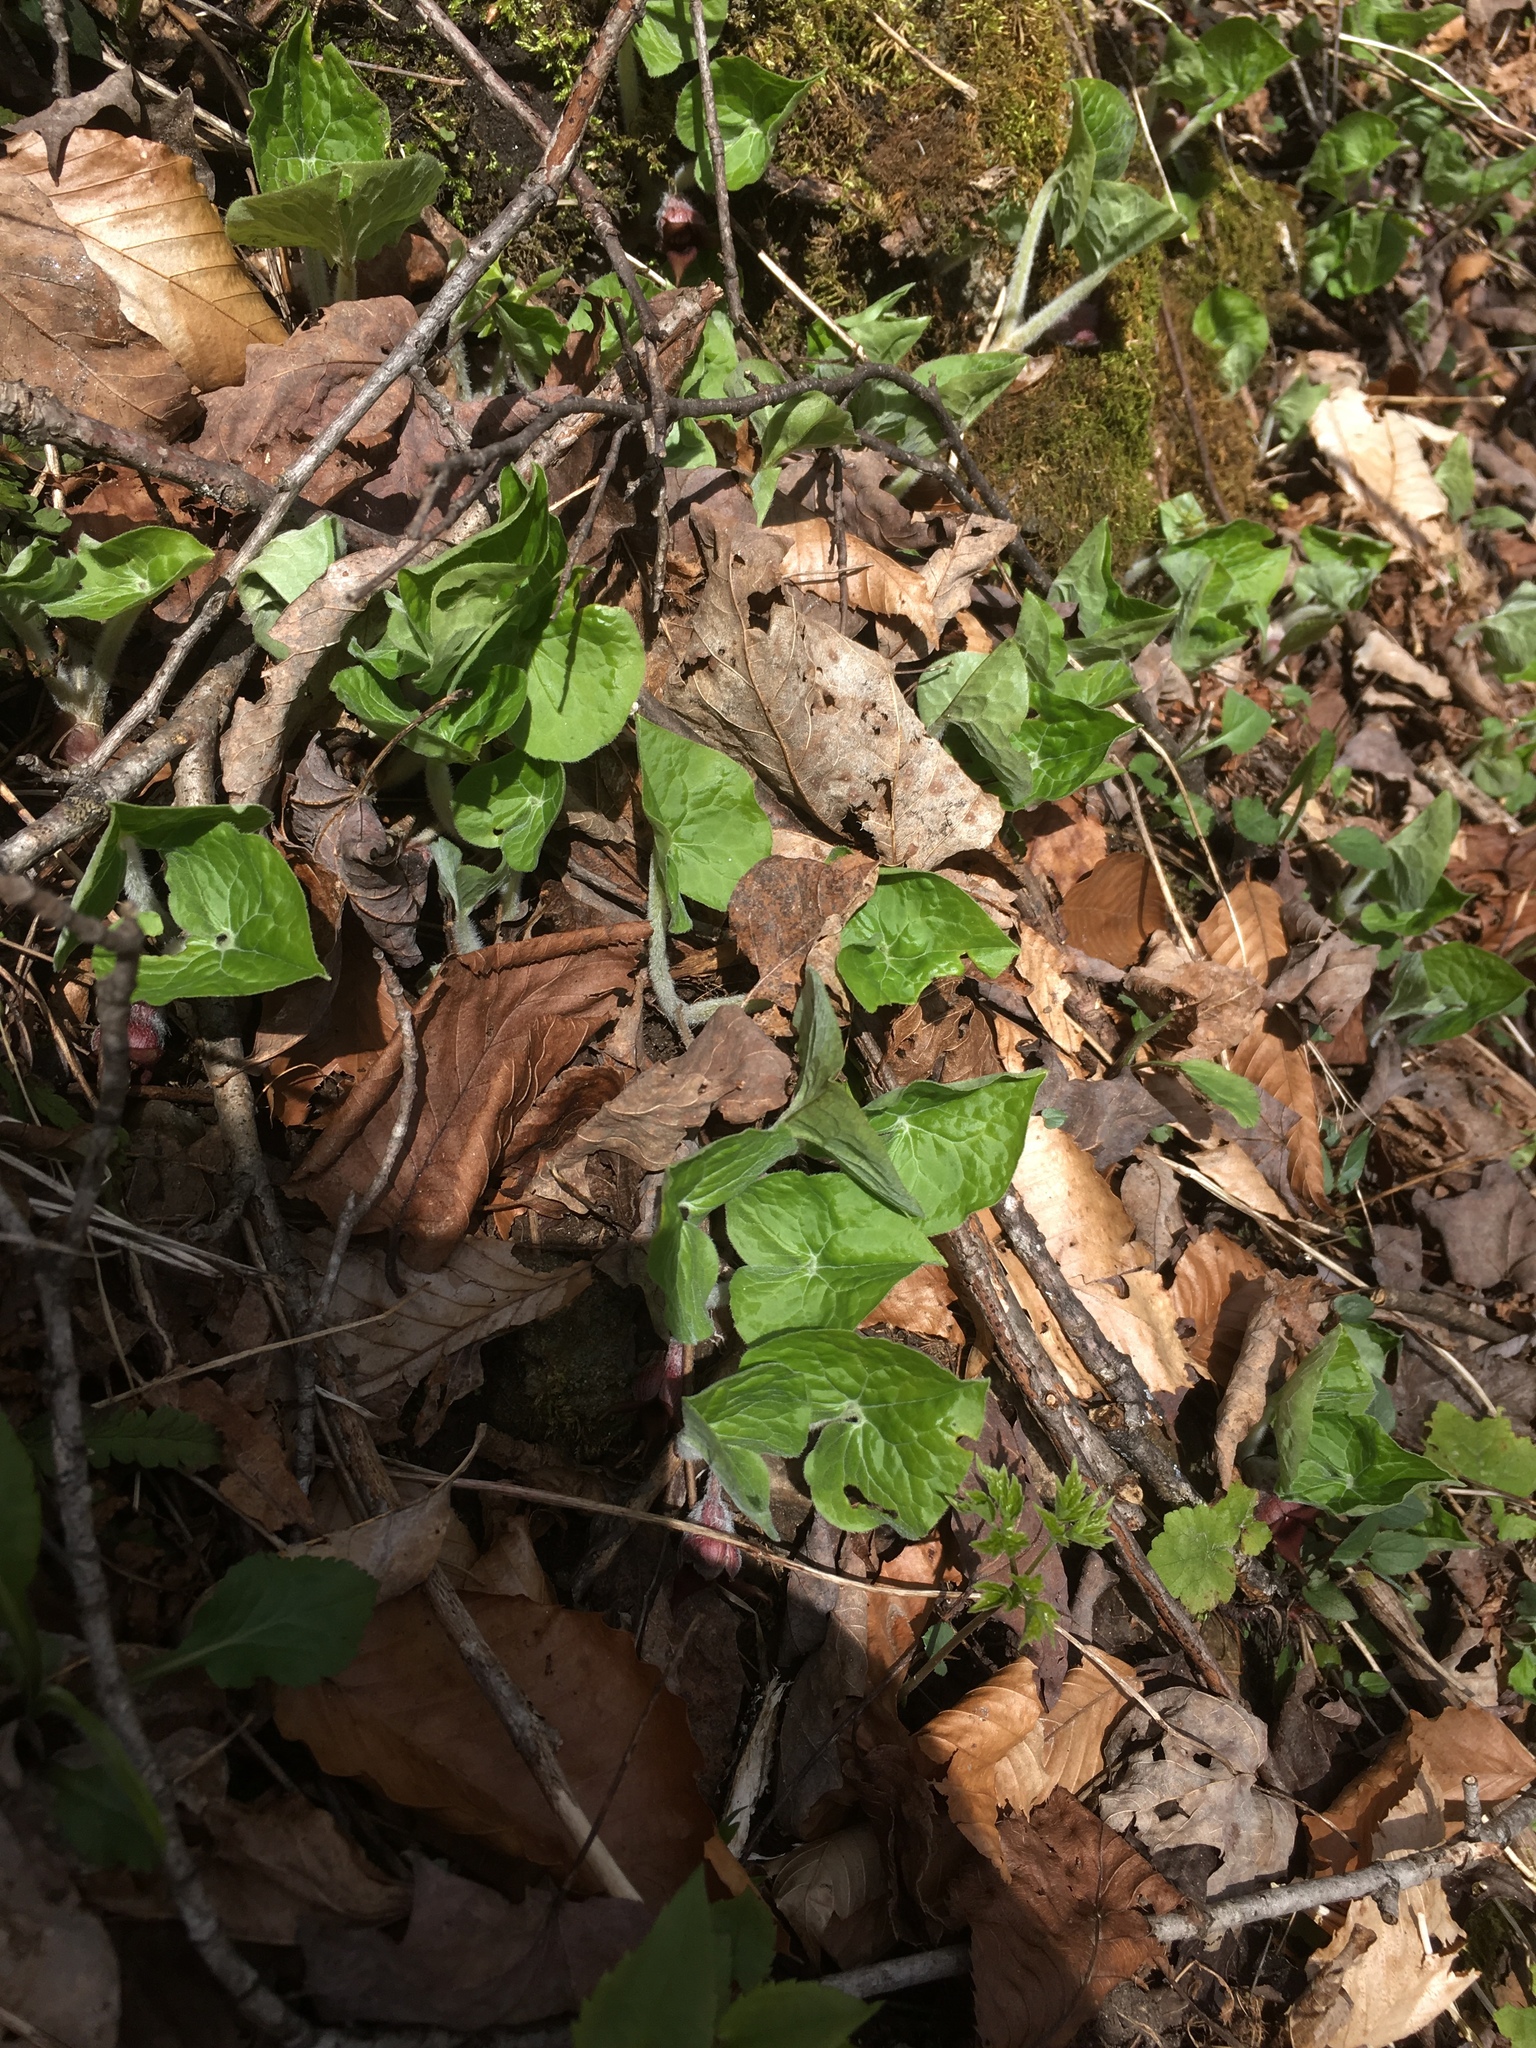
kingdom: Plantae
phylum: Tracheophyta
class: Magnoliopsida
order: Piperales
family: Aristolochiaceae
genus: Asarum
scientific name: Asarum canadense
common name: Wild ginger
